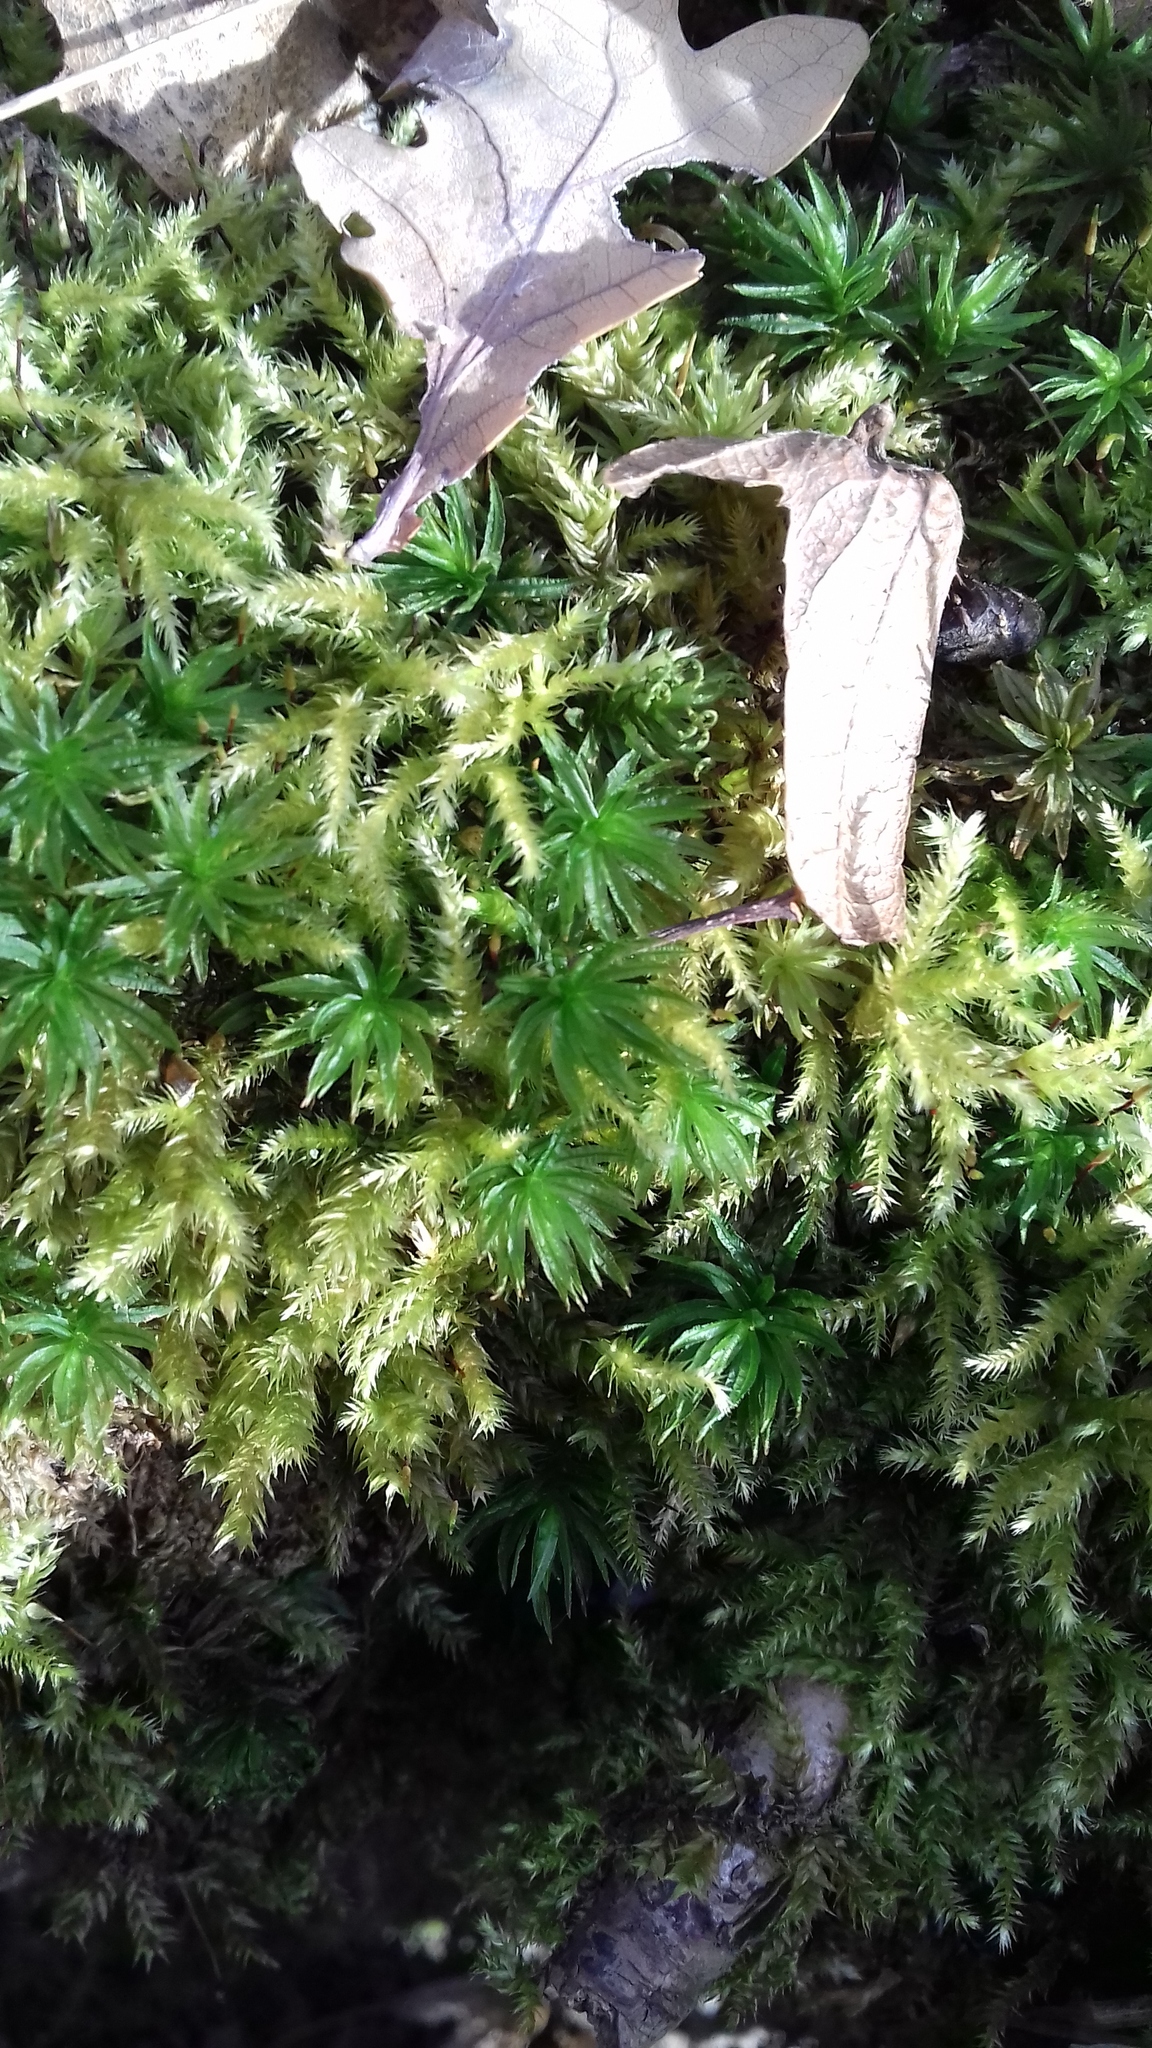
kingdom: Plantae
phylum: Bryophyta
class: Polytrichopsida
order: Polytrichales
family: Polytrichaceae
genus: Atrichum
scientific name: Atrichum undulatum
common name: Common smoothcap
